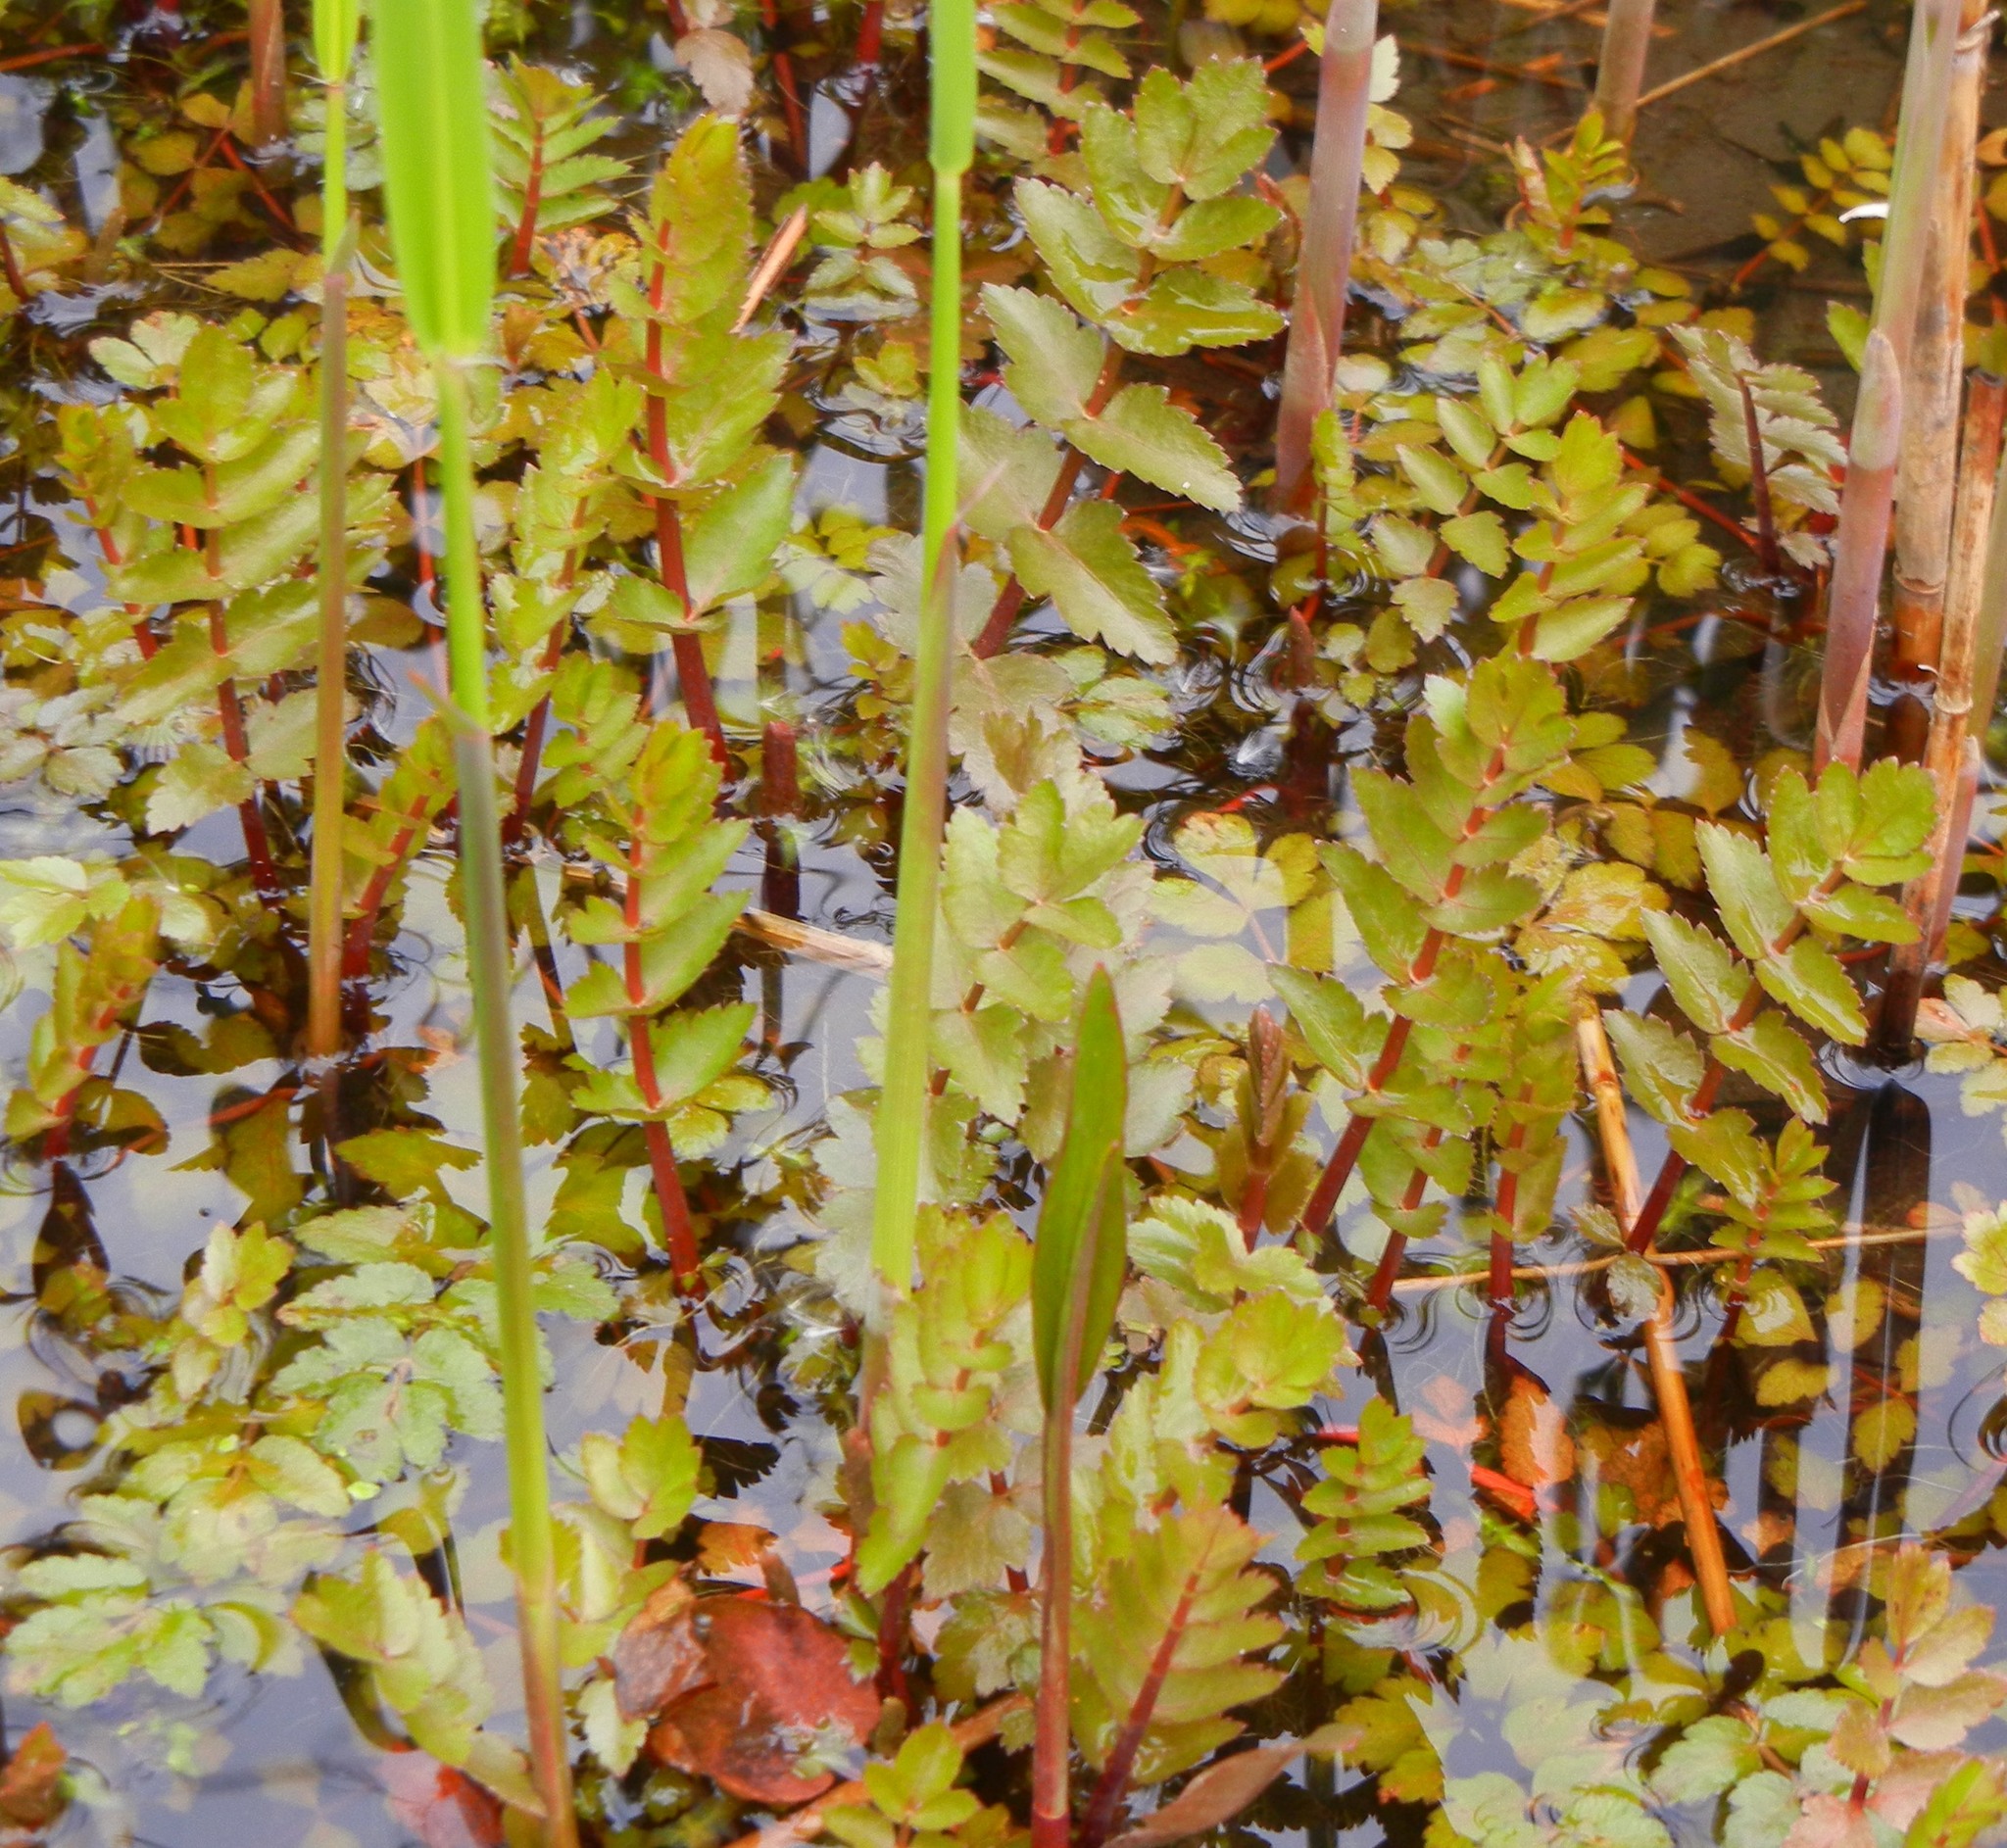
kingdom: Plantae
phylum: Tracheophyta
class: Magnoliopsida
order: Apiales
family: Apiaceae
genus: Berula
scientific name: Berula erecta
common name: Lesser water-parsnip
